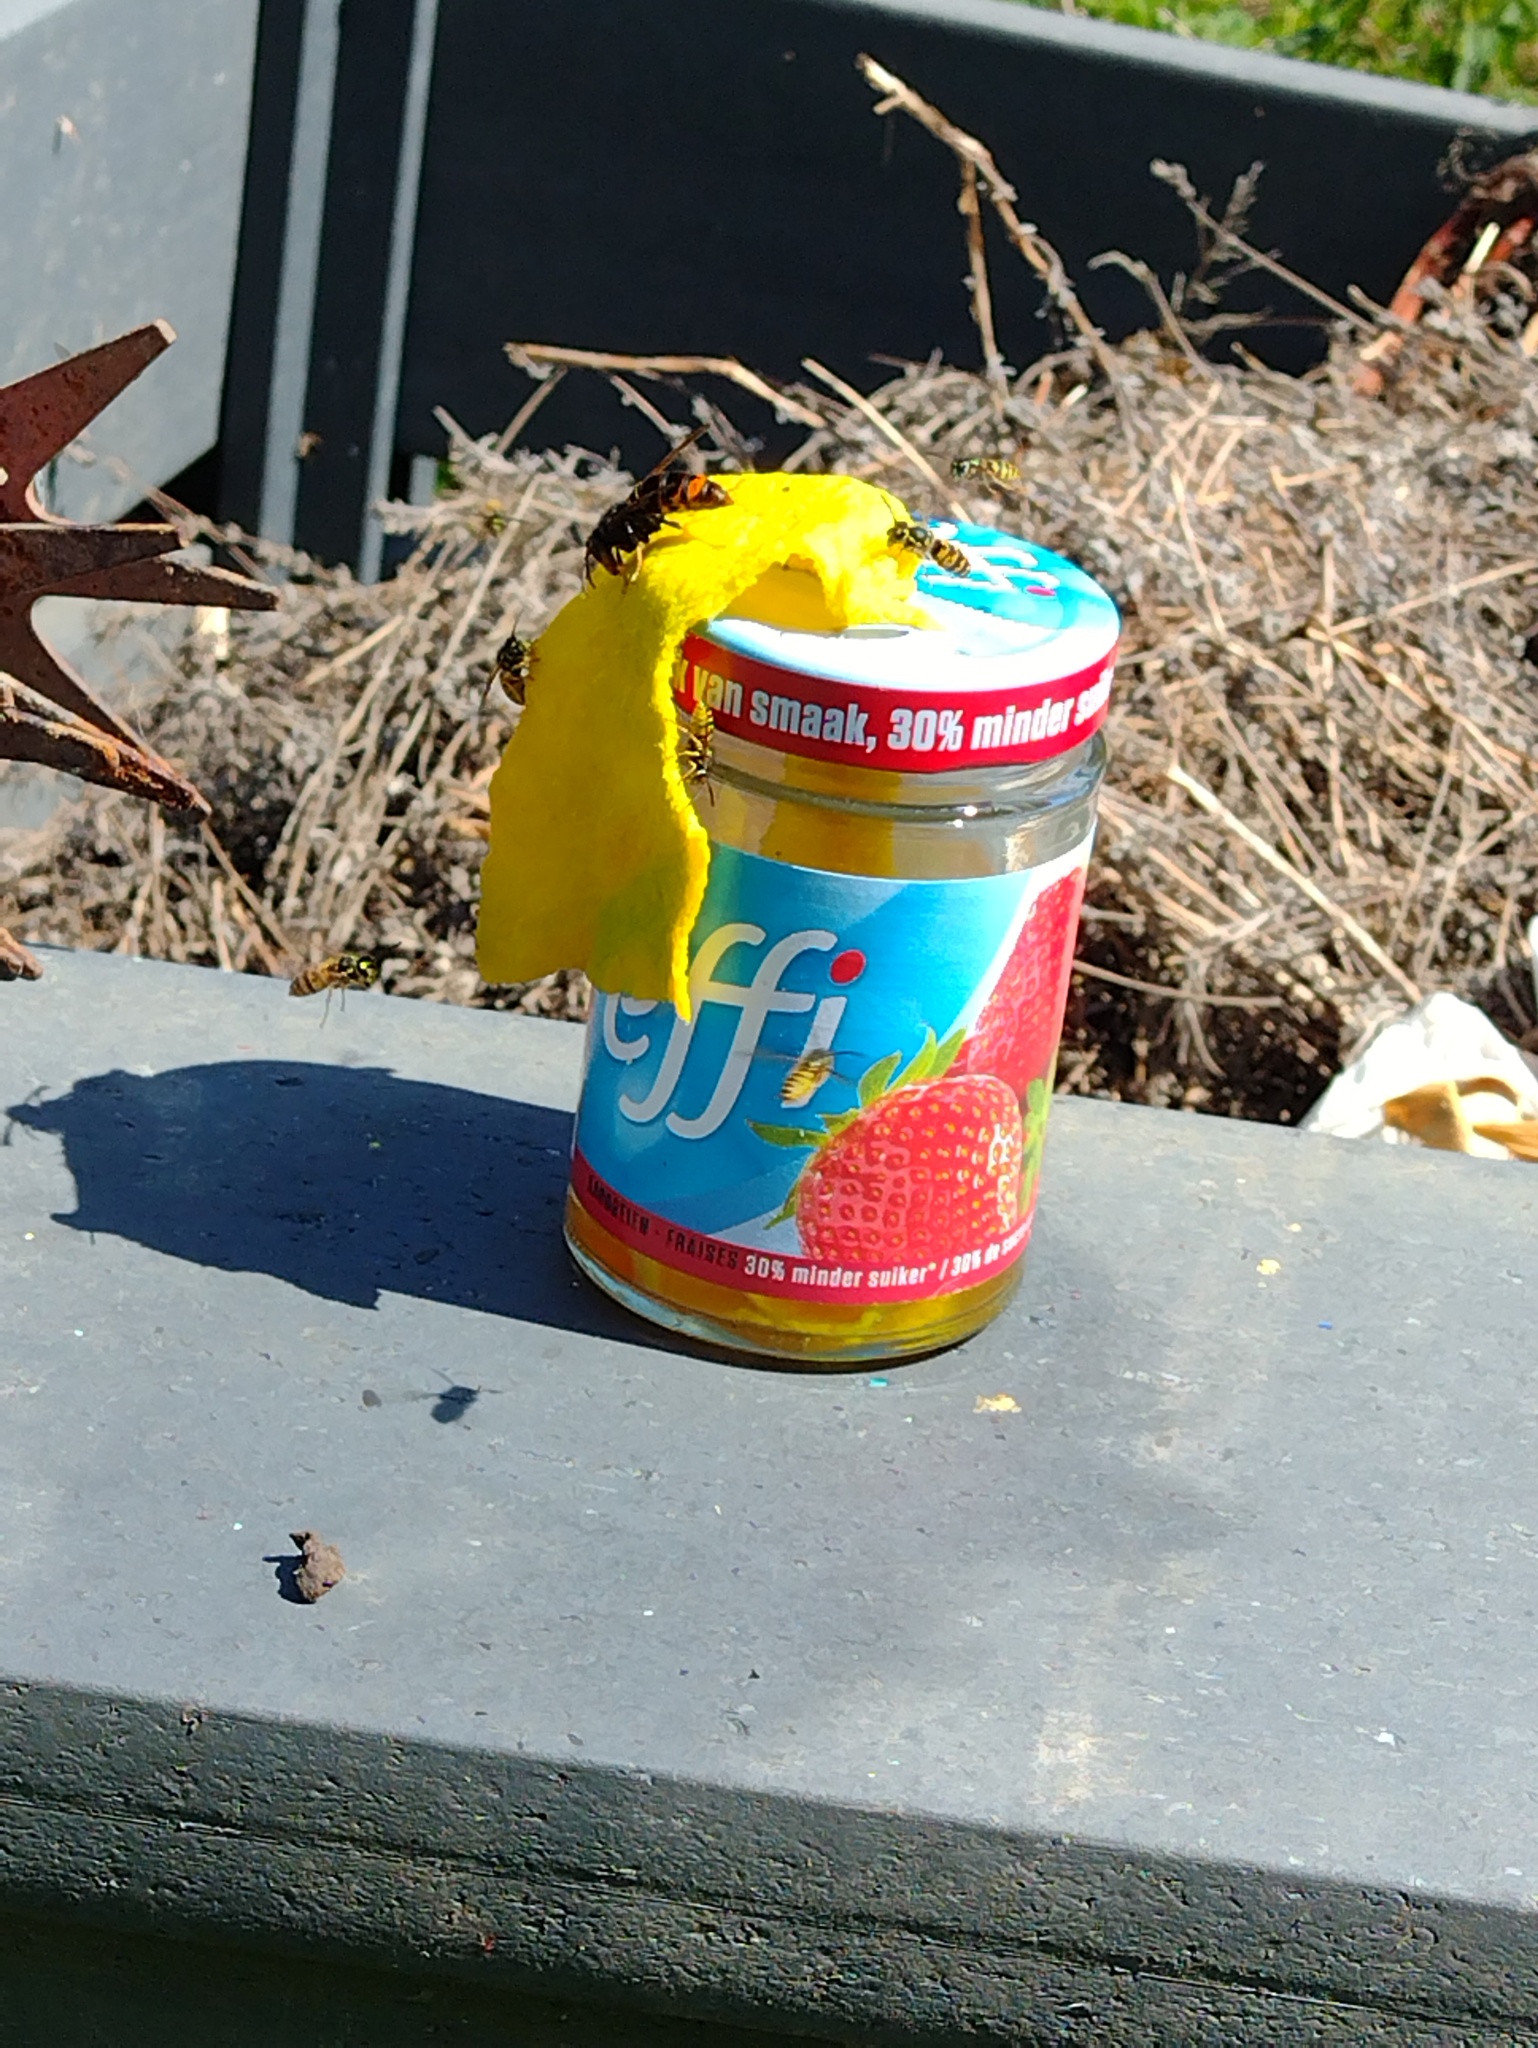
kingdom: Animalia
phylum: Arthropoda
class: Insecta
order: Hymenoptera
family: Vespidae
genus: Vespa
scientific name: Vespa velutina
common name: Asian hornet
